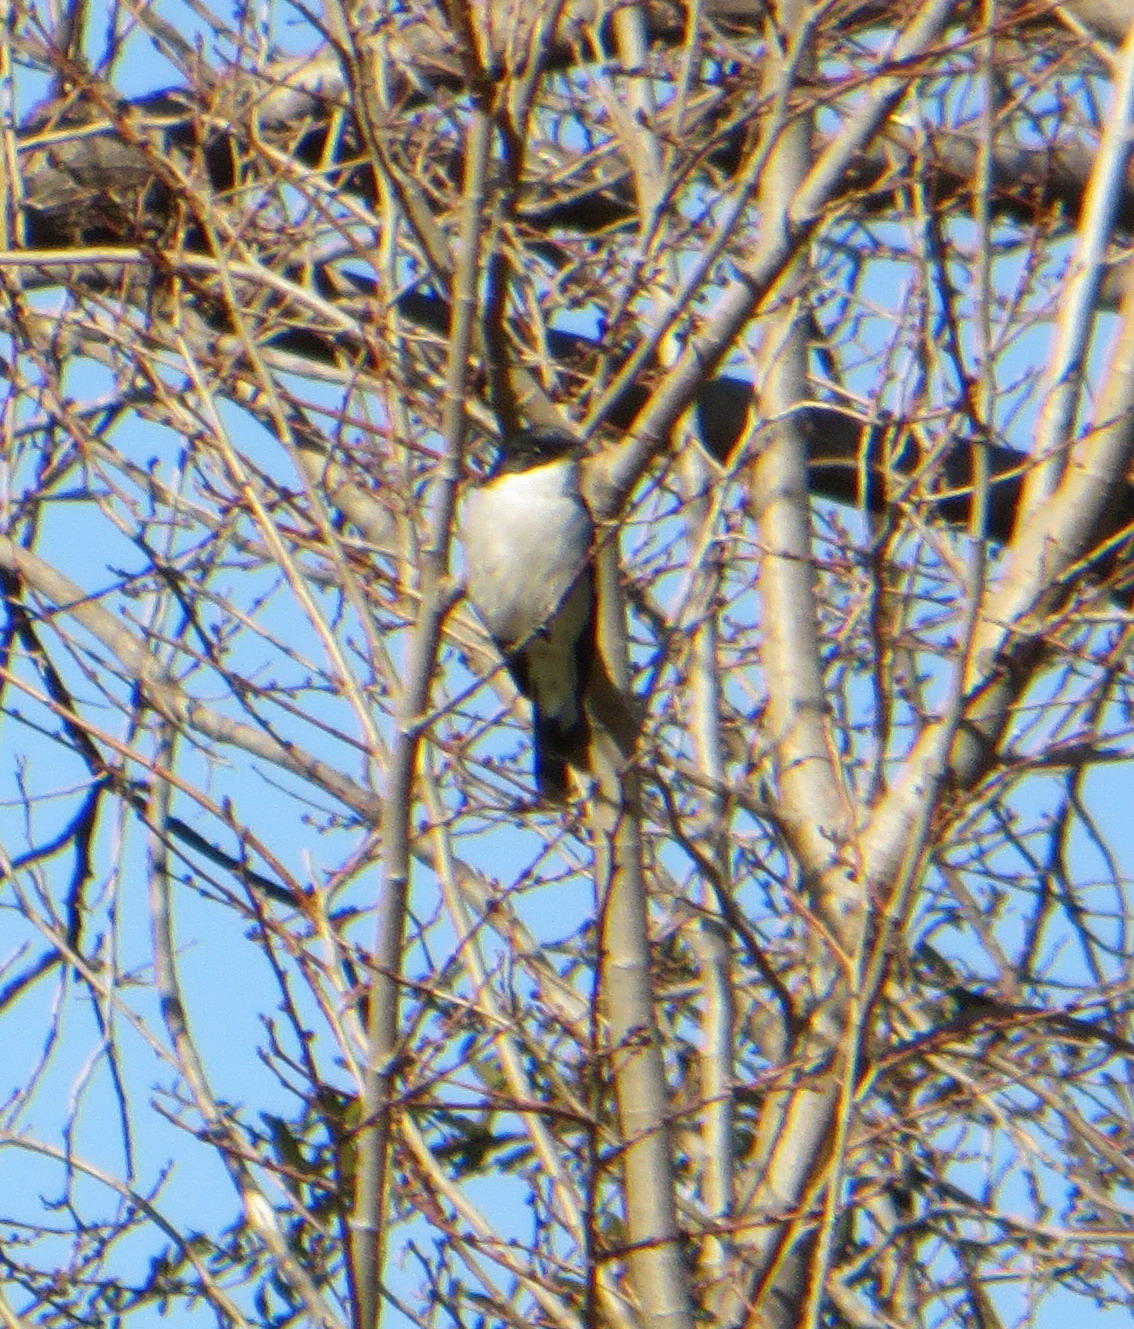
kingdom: Animalia
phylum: Chordata
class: Aves
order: Passeriformes
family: Muscicapidae
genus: Sigelus
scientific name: Sigelus silens
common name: Fiscal flycatcher
